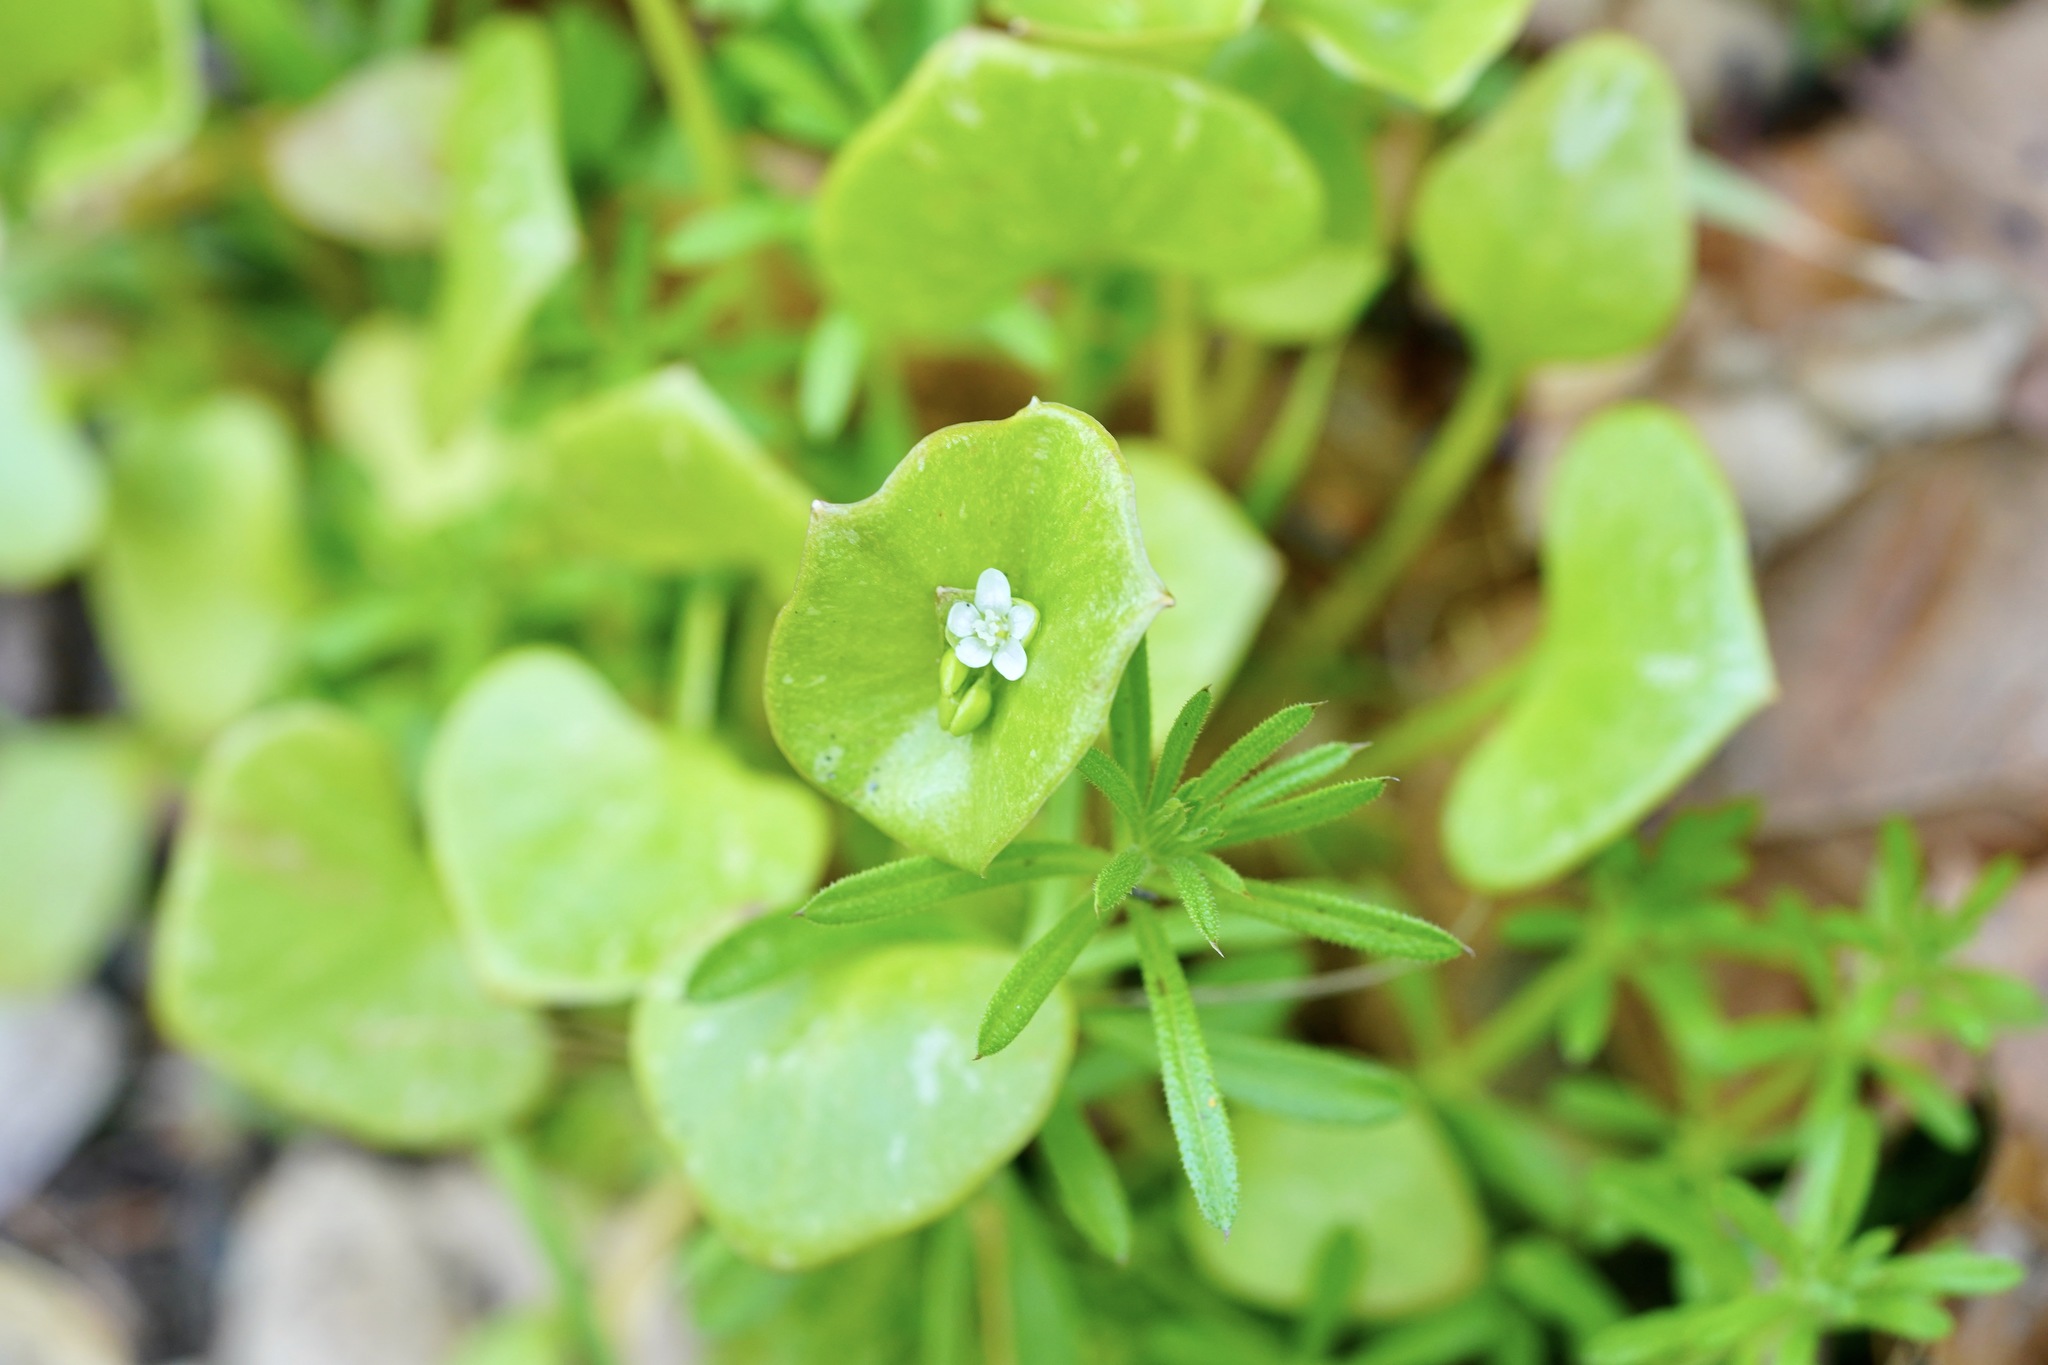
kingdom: Plantae
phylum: Tracheophyta
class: Magnoliopsida
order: Caryophyllales
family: Montiaceae
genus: Claytonia
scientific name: Claytonia perfoliata
